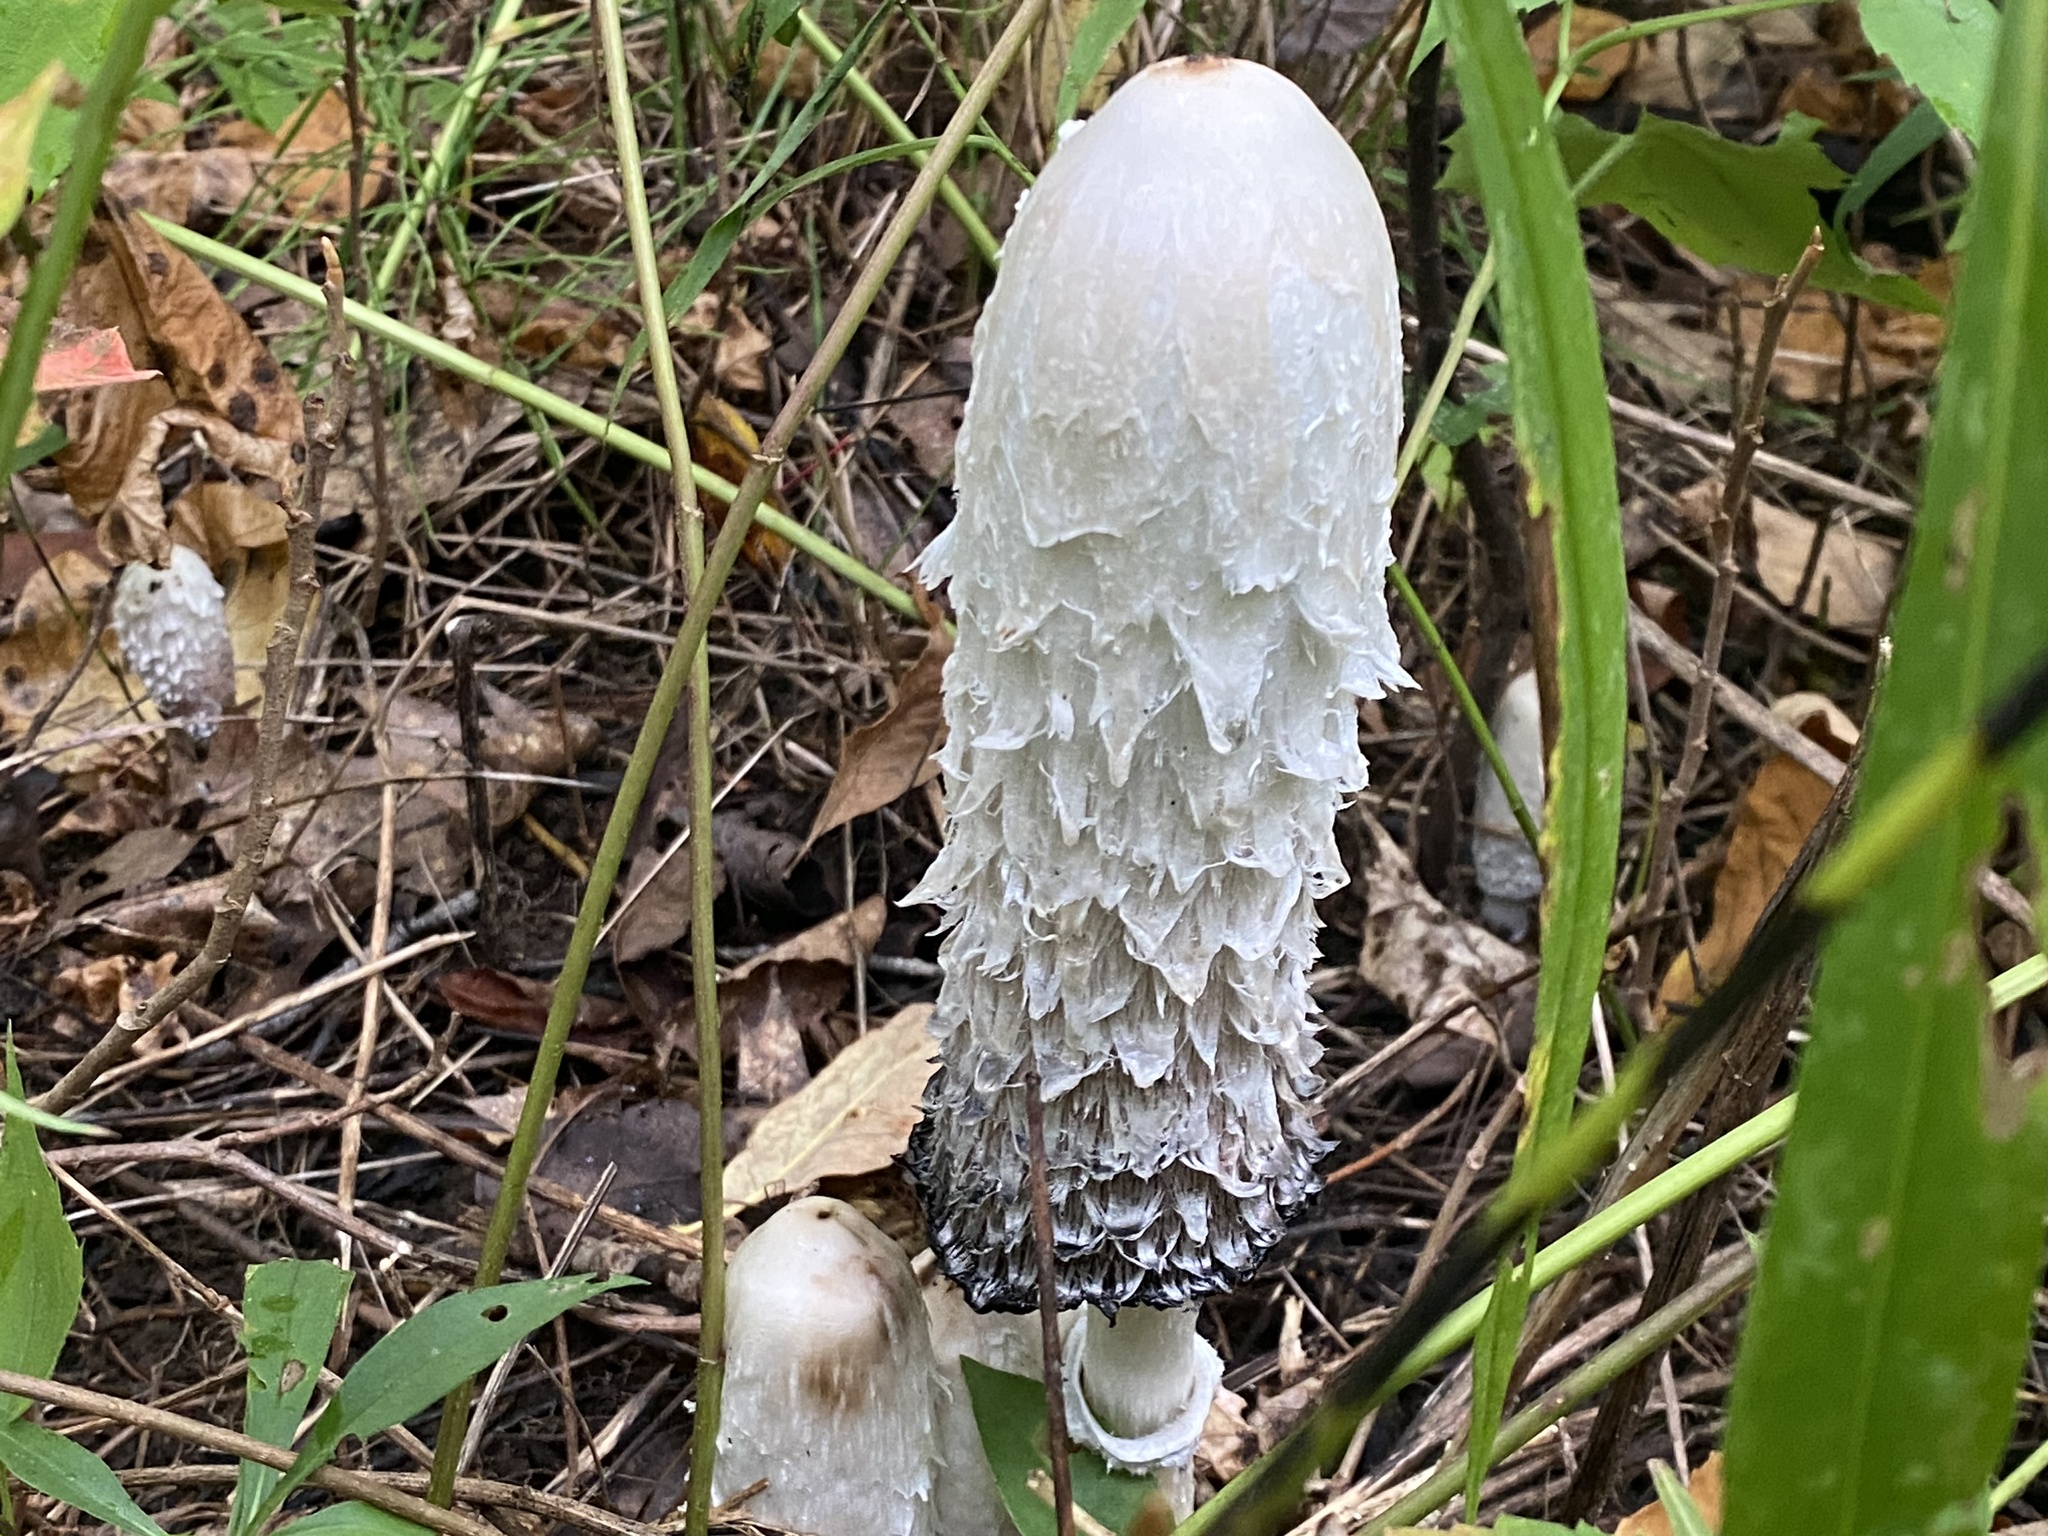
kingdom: Fungi
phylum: Basidiomycota
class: Agaricomycetes
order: Agaricales
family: Agaricaceae
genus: Coprinus
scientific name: Coprinus comatus
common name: Lawyer's wig
